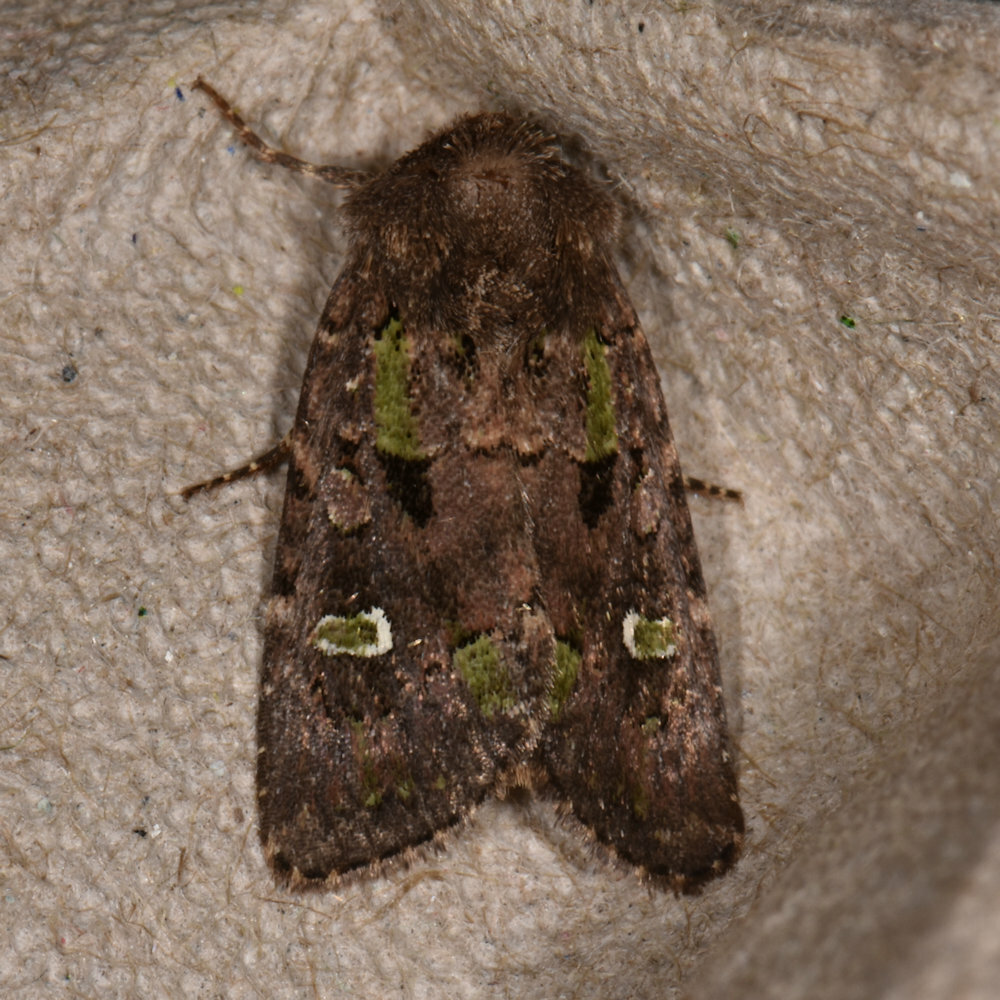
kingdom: Animalia
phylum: Arthropoda
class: Insecta
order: Lepidoptera
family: Noctuidae
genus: Lacinipolia
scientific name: Lacinipolia renigera
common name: Kidney-spotted minor
